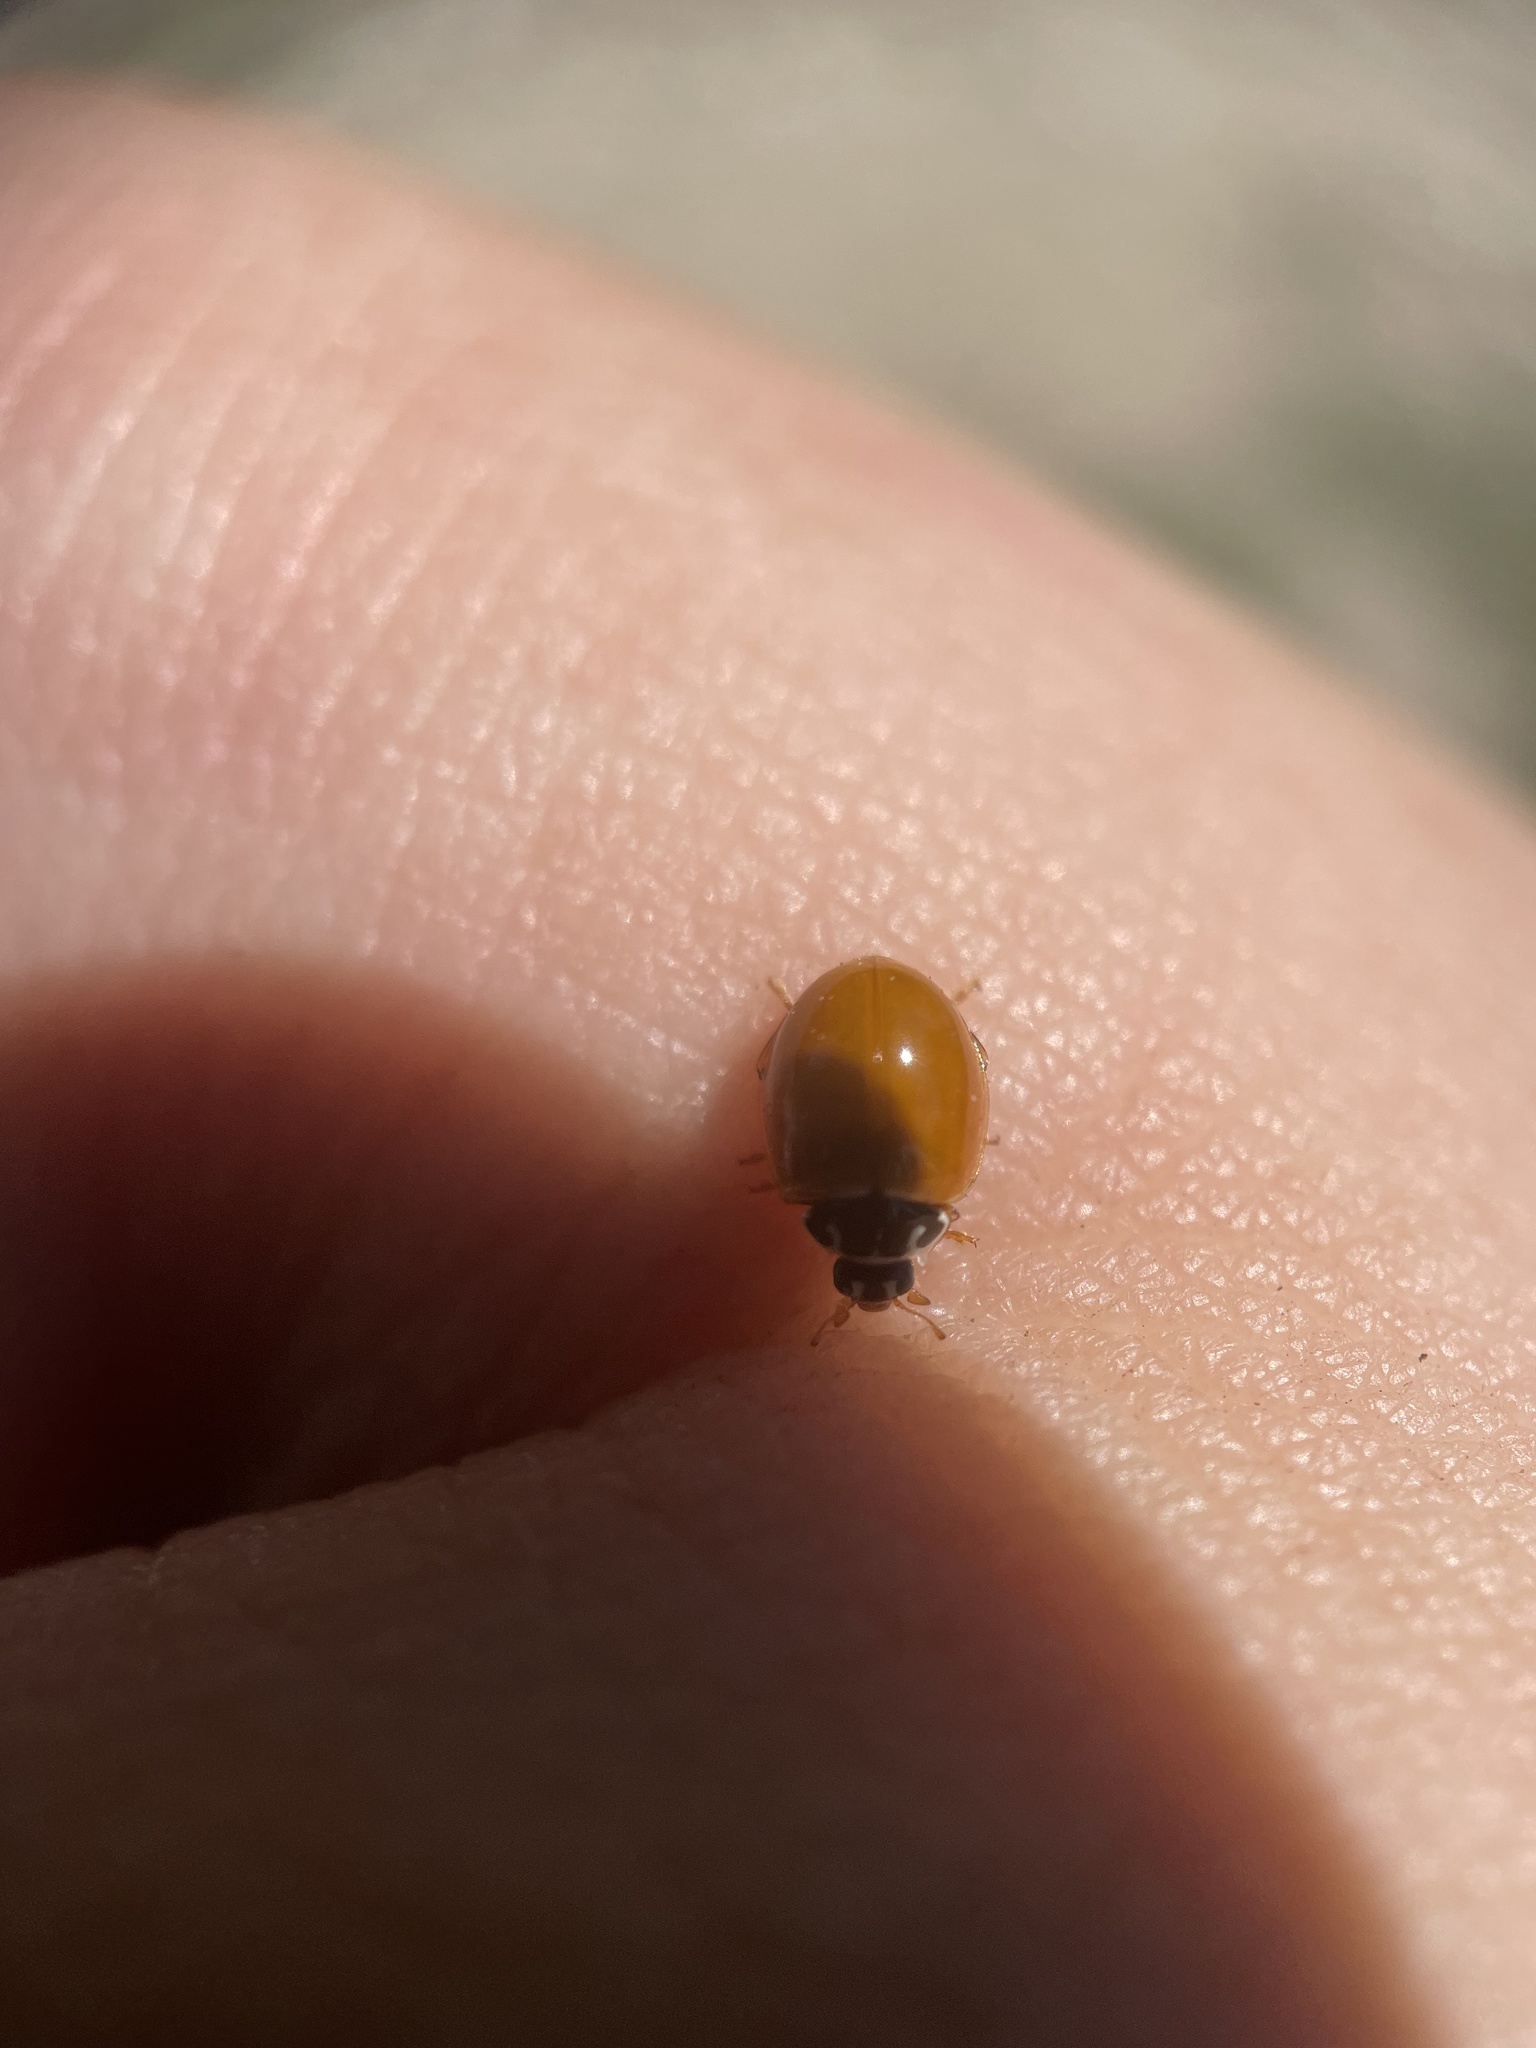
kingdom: Animalia
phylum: Arthropoda
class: Insecta
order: Coleoptera
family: Coccinellidae
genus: Cycloneda
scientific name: Cycloneda munda
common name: Polished lady beetle
